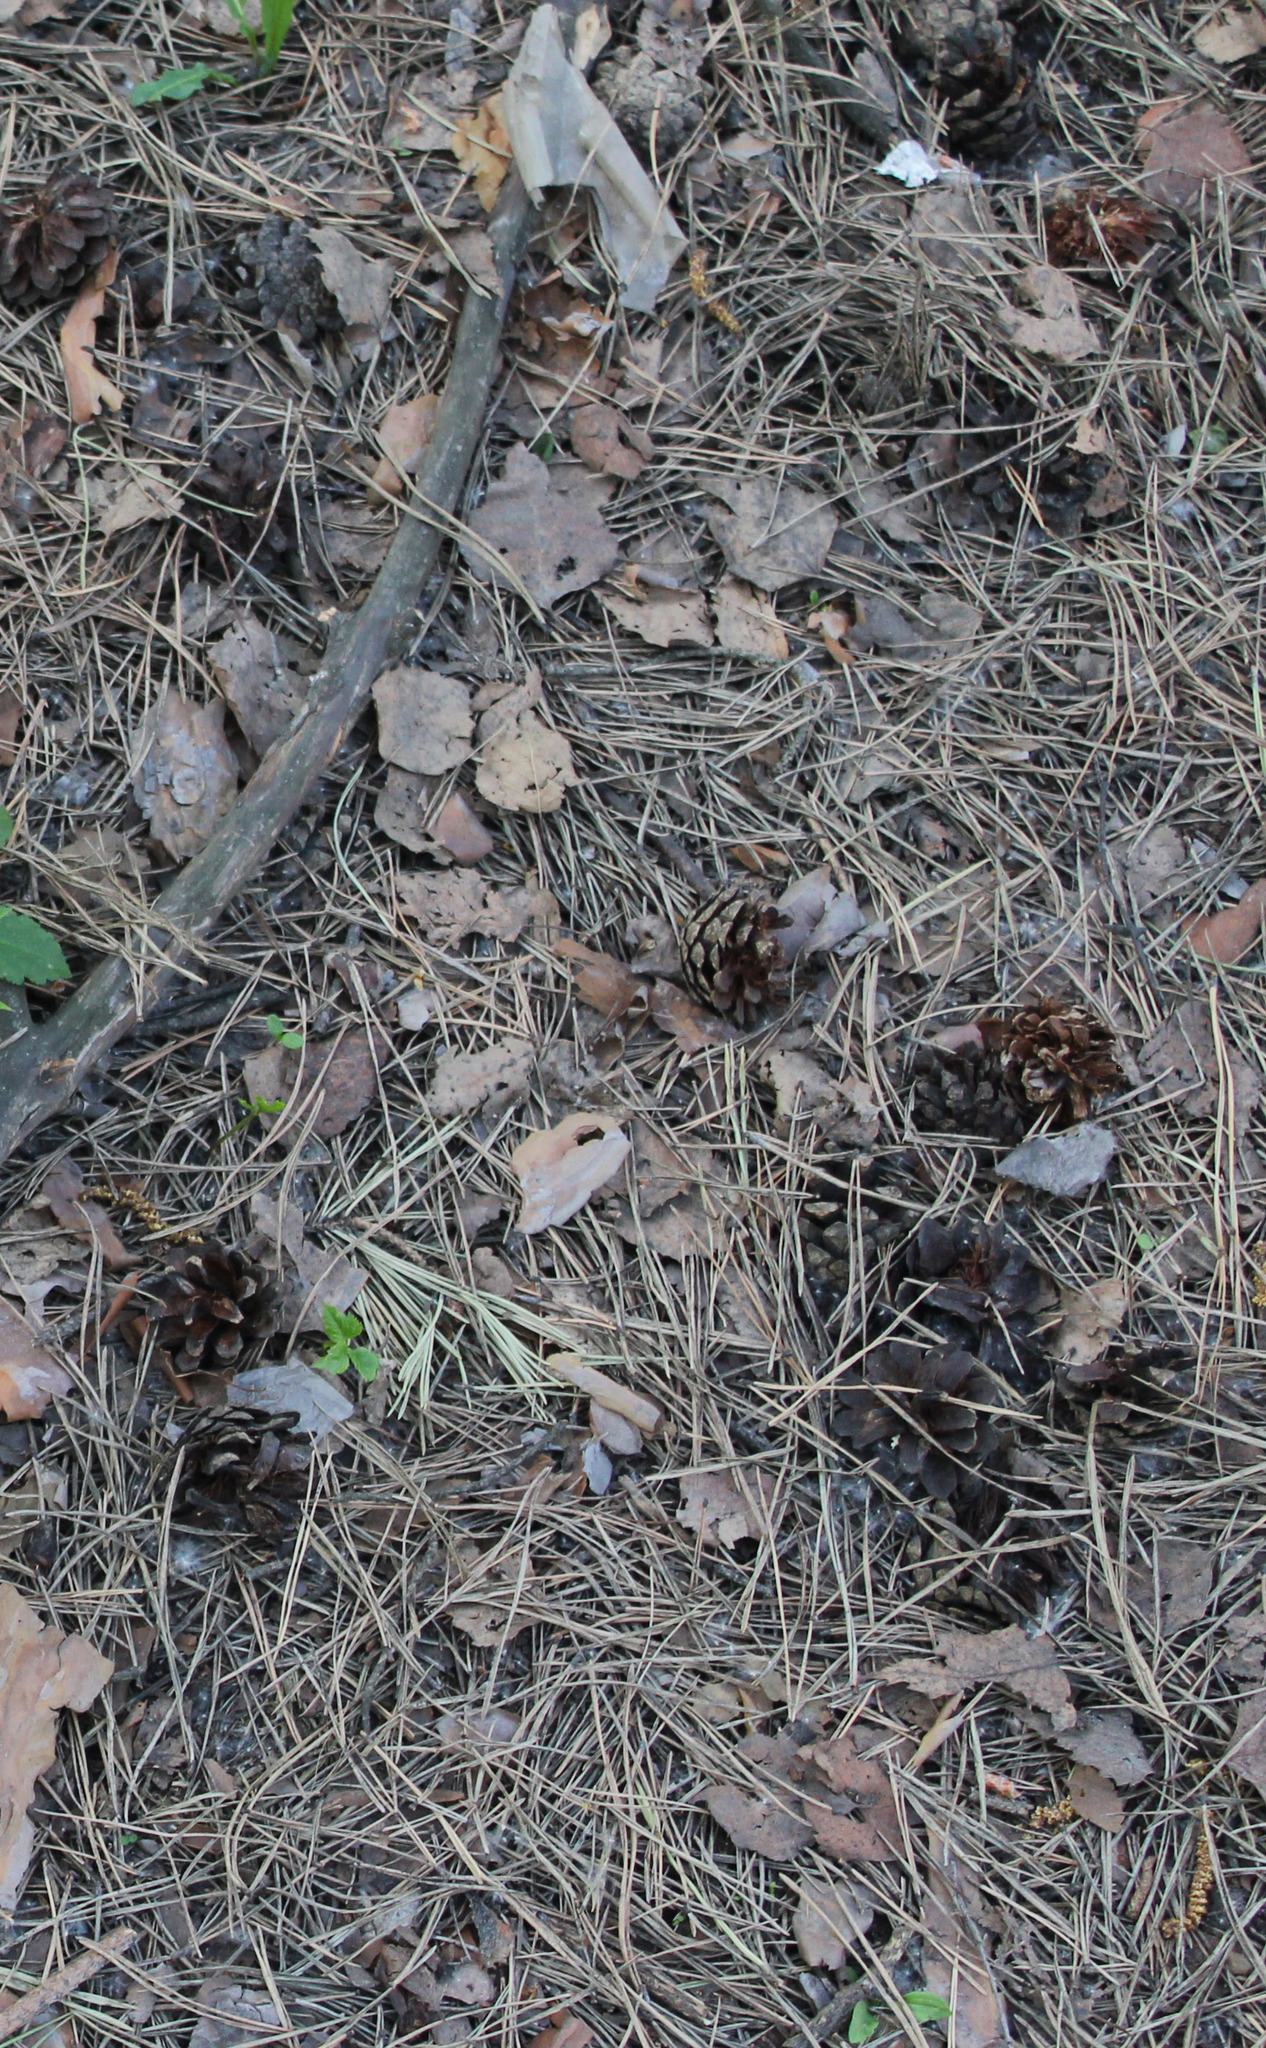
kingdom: Plantae
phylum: Tracheophyta
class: Pinopsida
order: Pinales
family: Pinaceae
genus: Pinus
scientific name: Pinus sylvestris
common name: Scots pine
